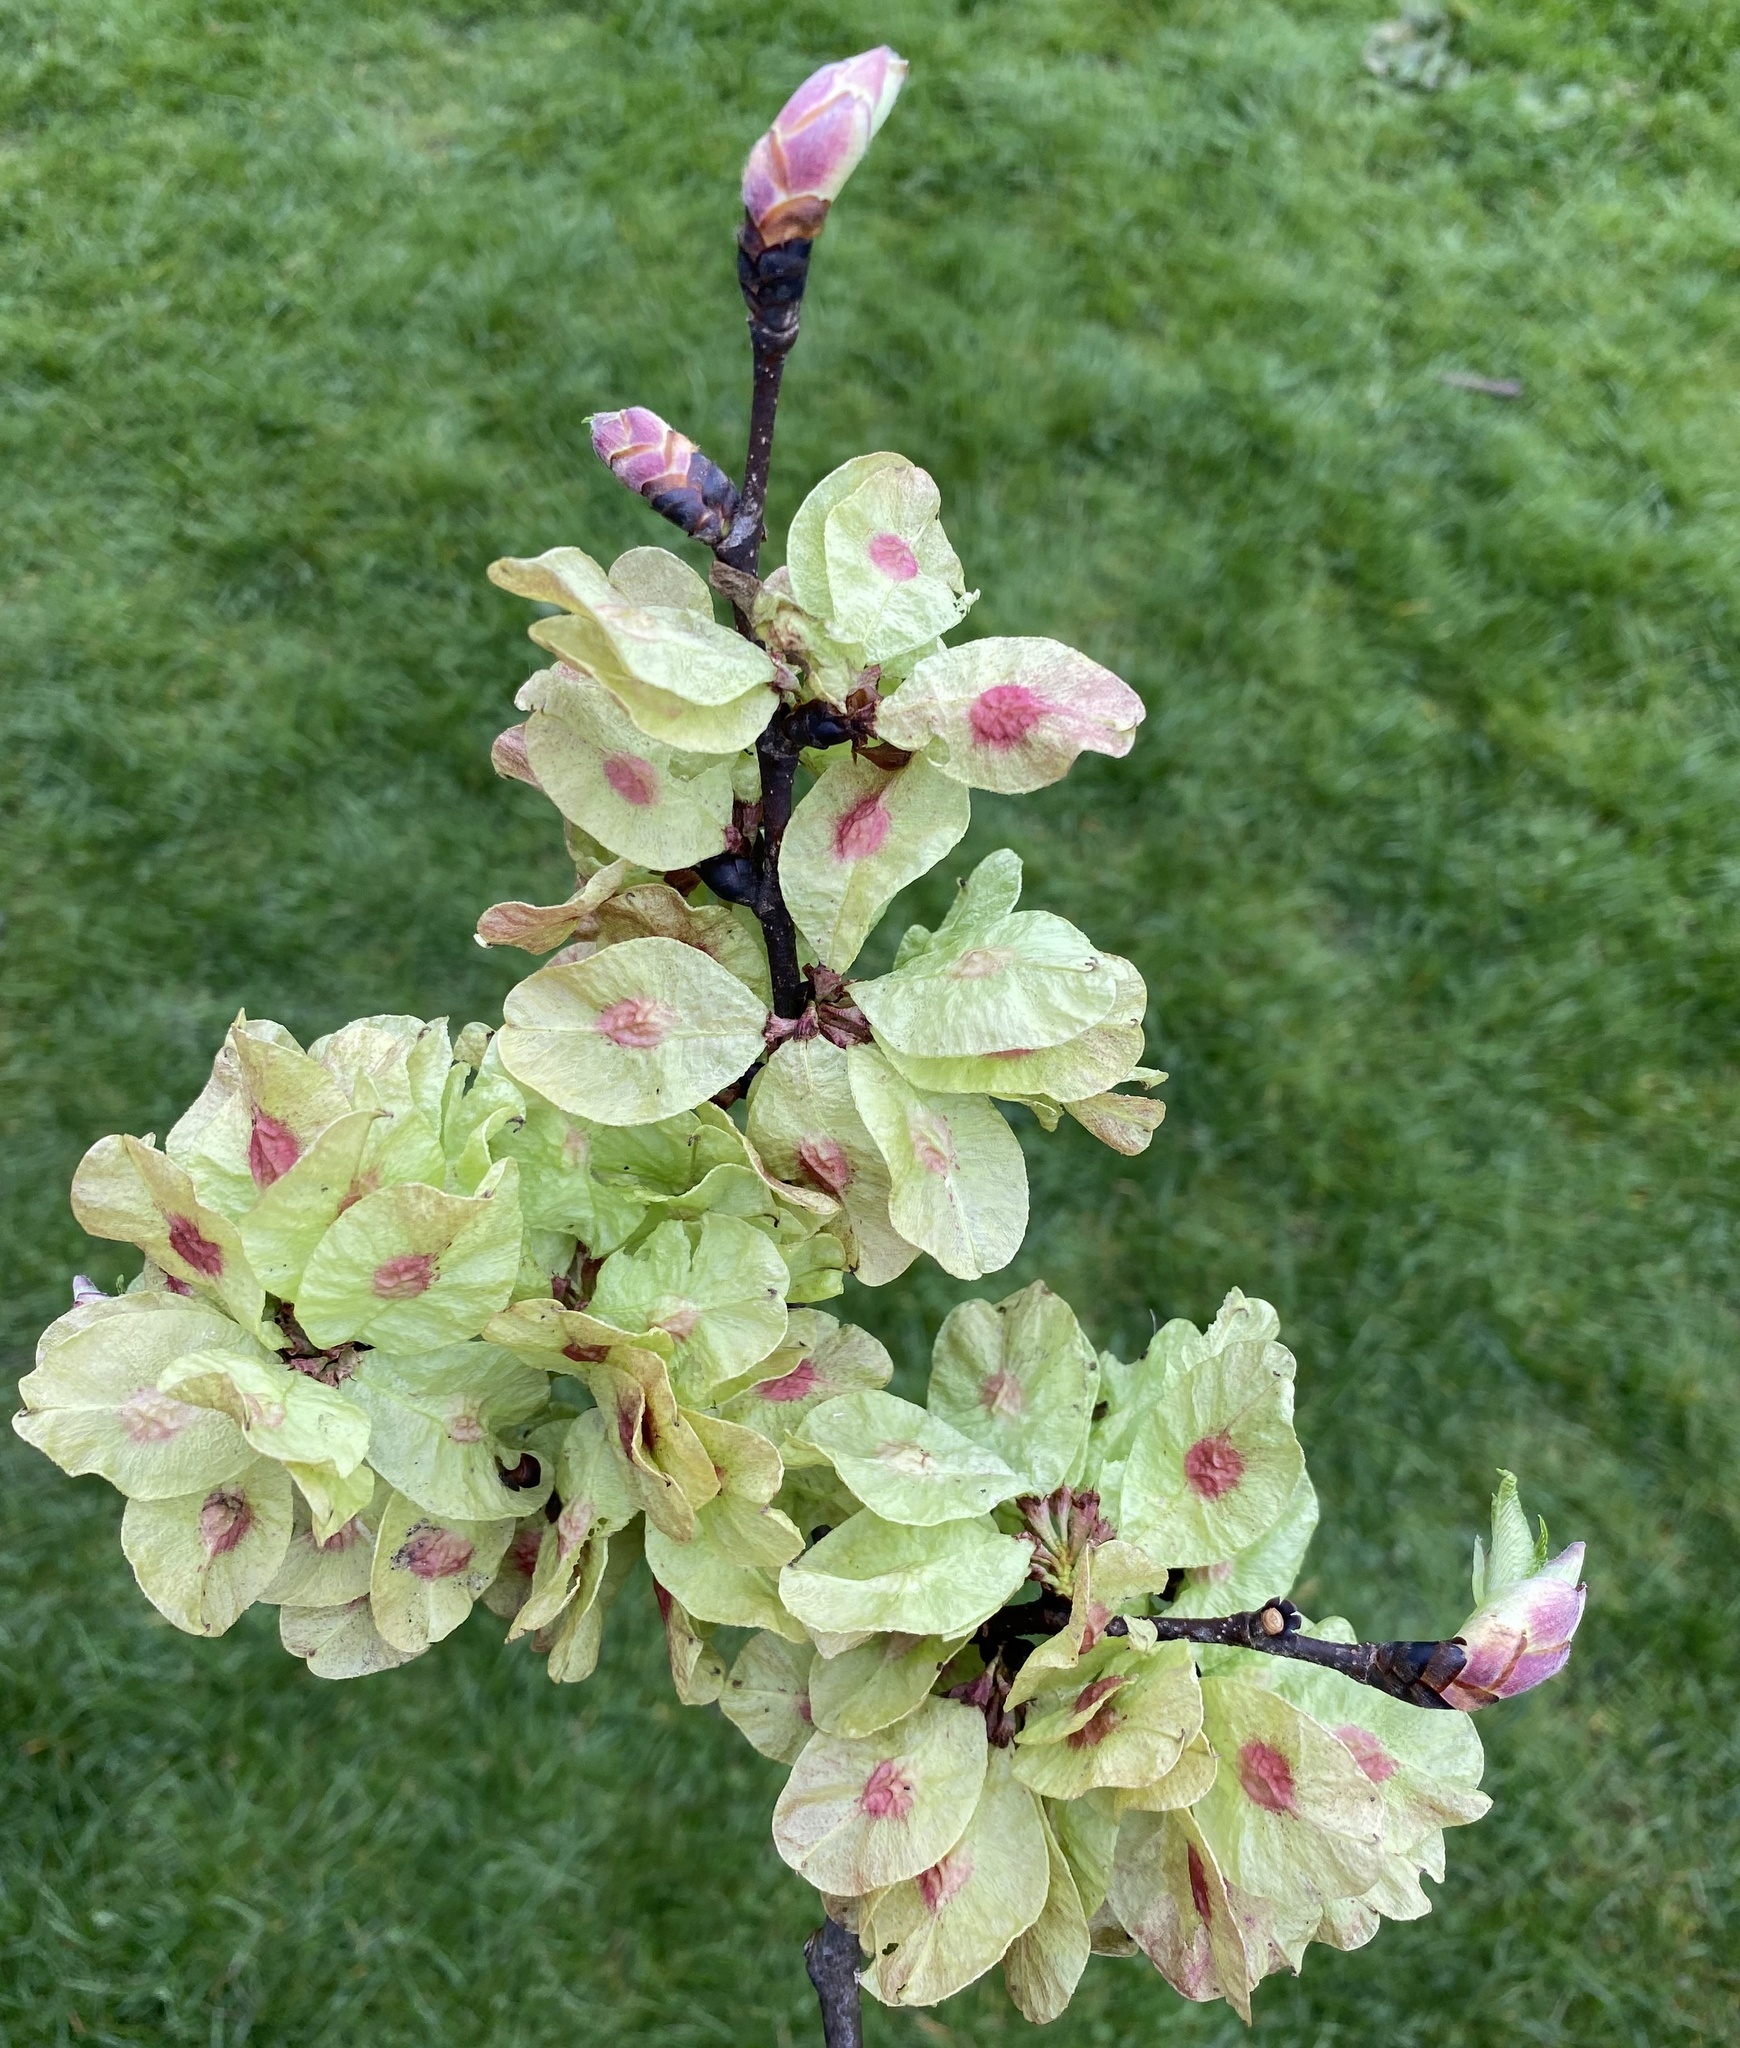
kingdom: Plantae
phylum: Tracheophyta
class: Magnoliopsida
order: Rosales
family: Ulmaceae
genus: Ulmus
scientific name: Ulmus glabra
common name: Wych elm
